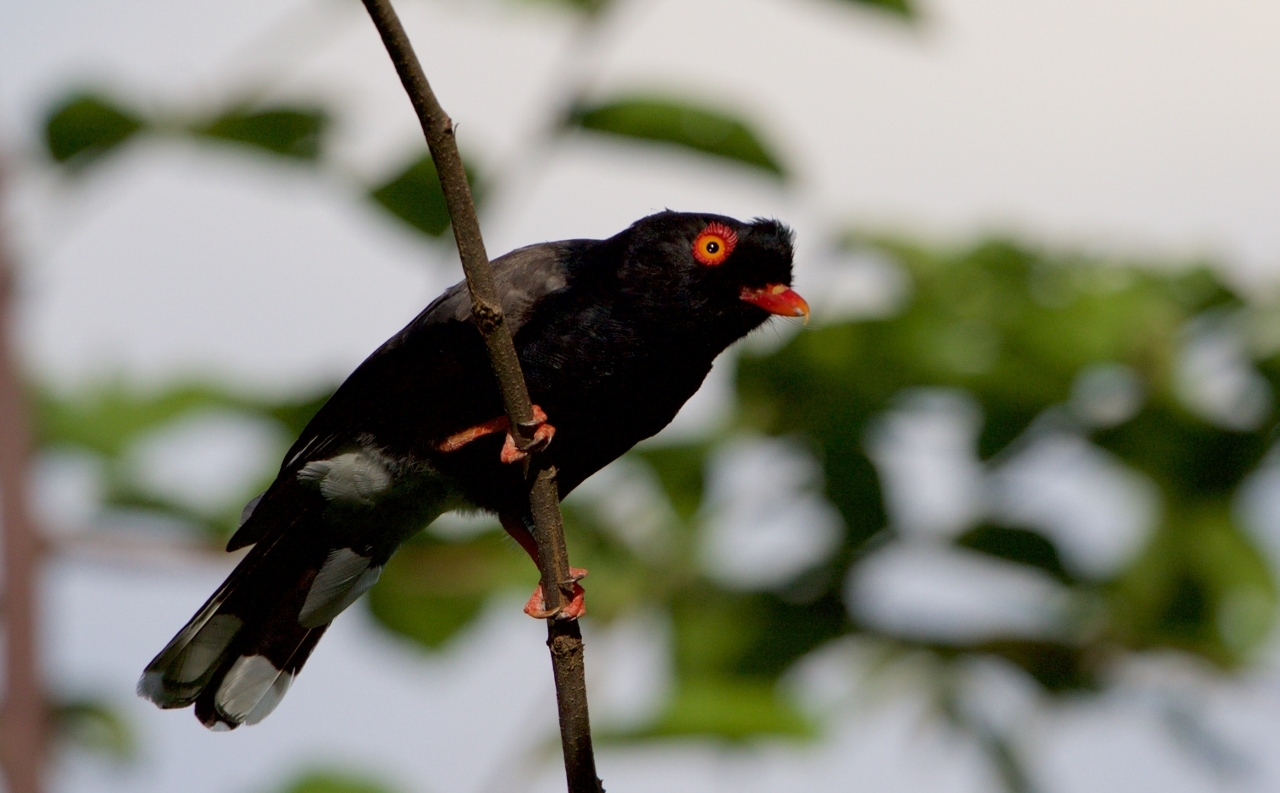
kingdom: Animalia
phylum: Chordata
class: Aves
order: Passeriformes
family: Prionopidae
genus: Prionops
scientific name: Prionops retzii
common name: Retz's helmetshrike
